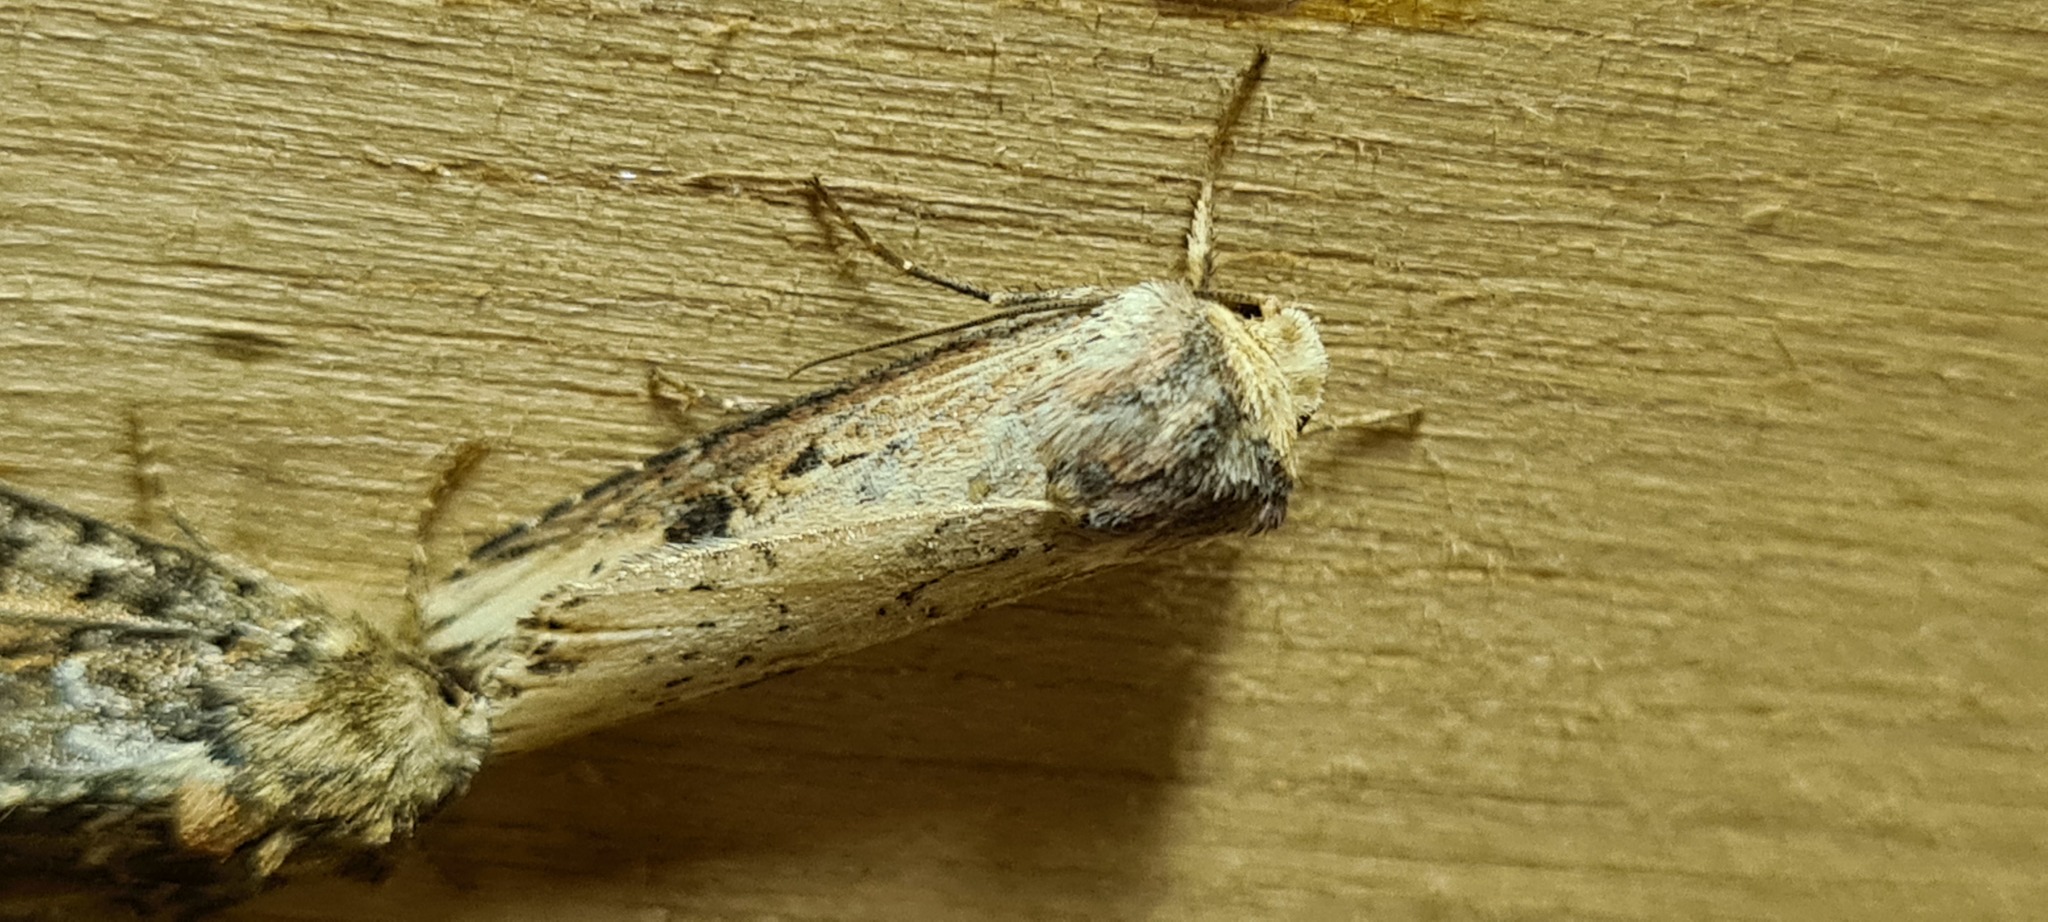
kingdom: Animalia
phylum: Arthropoda
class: Insecta
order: Lepidoptera
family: Noctuidae
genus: Axylia
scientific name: Axylia putris
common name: Flame
